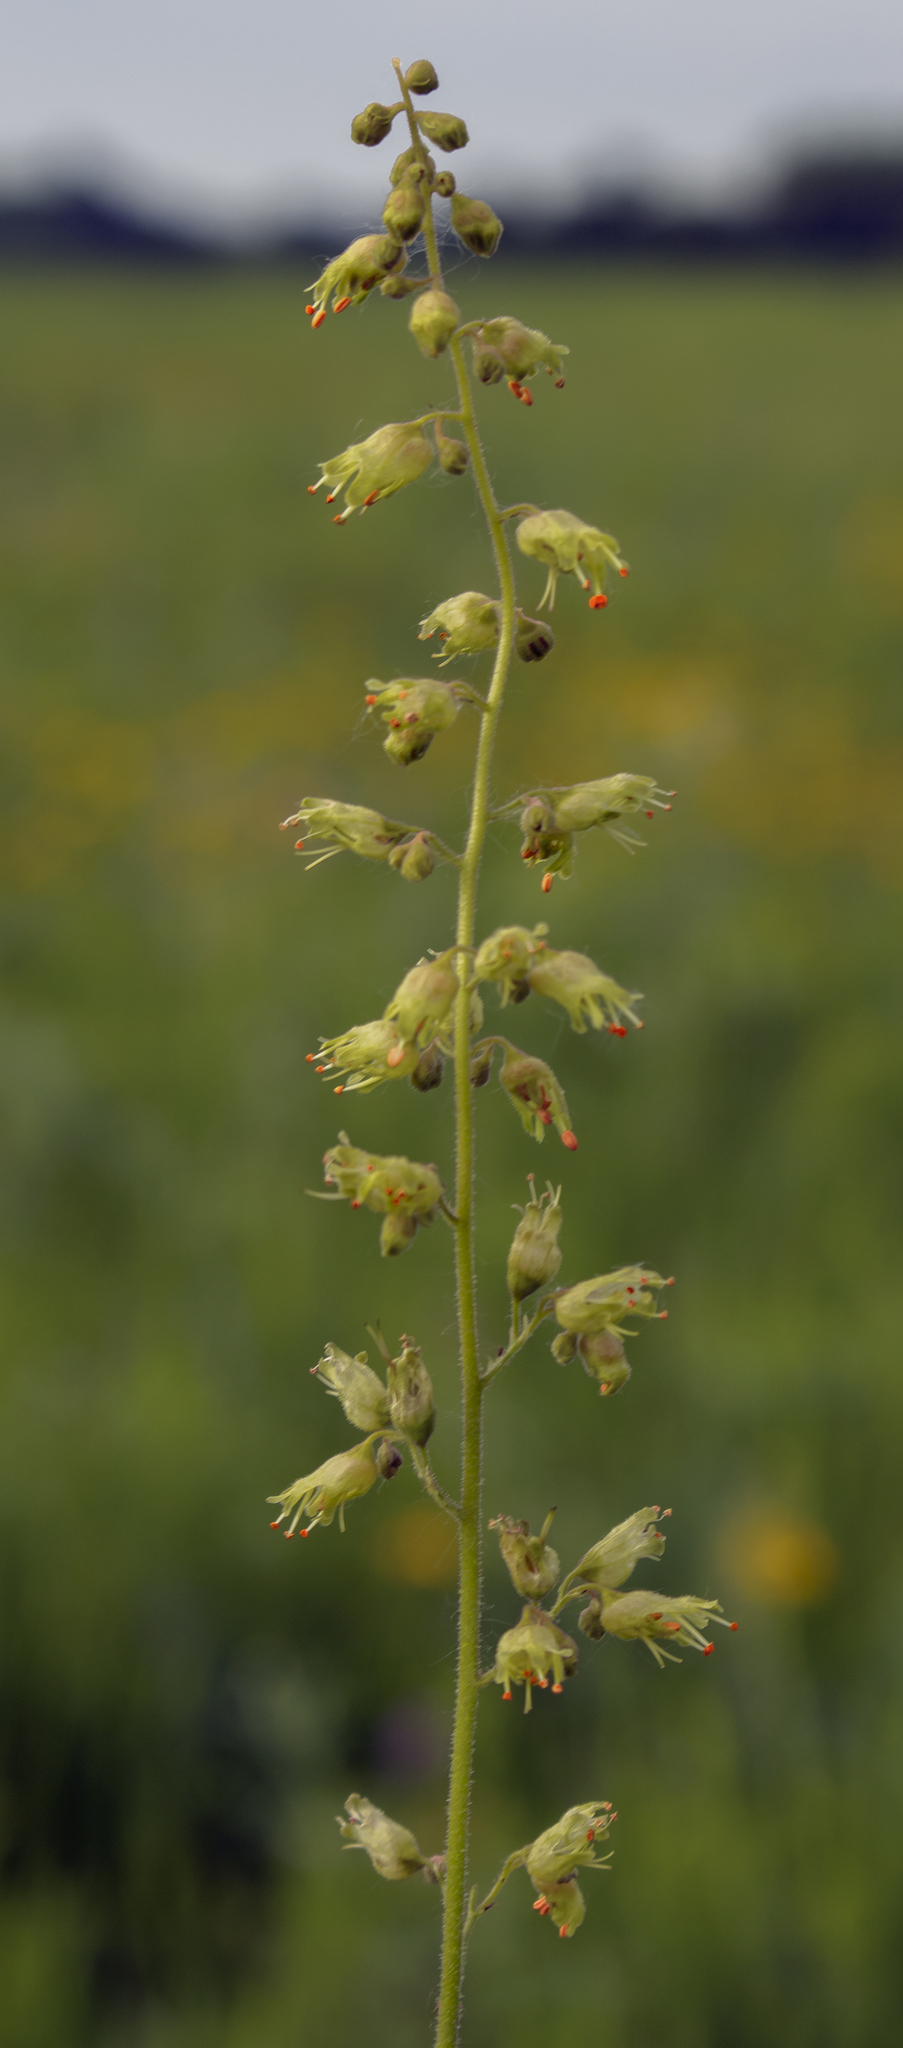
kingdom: Plantae
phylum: Tracheophyta
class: Magnoliopsida
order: Saxifragales
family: Saxifragaceae
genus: Heuchera
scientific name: Heuchera richardsonii
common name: Richardson's alumroot
